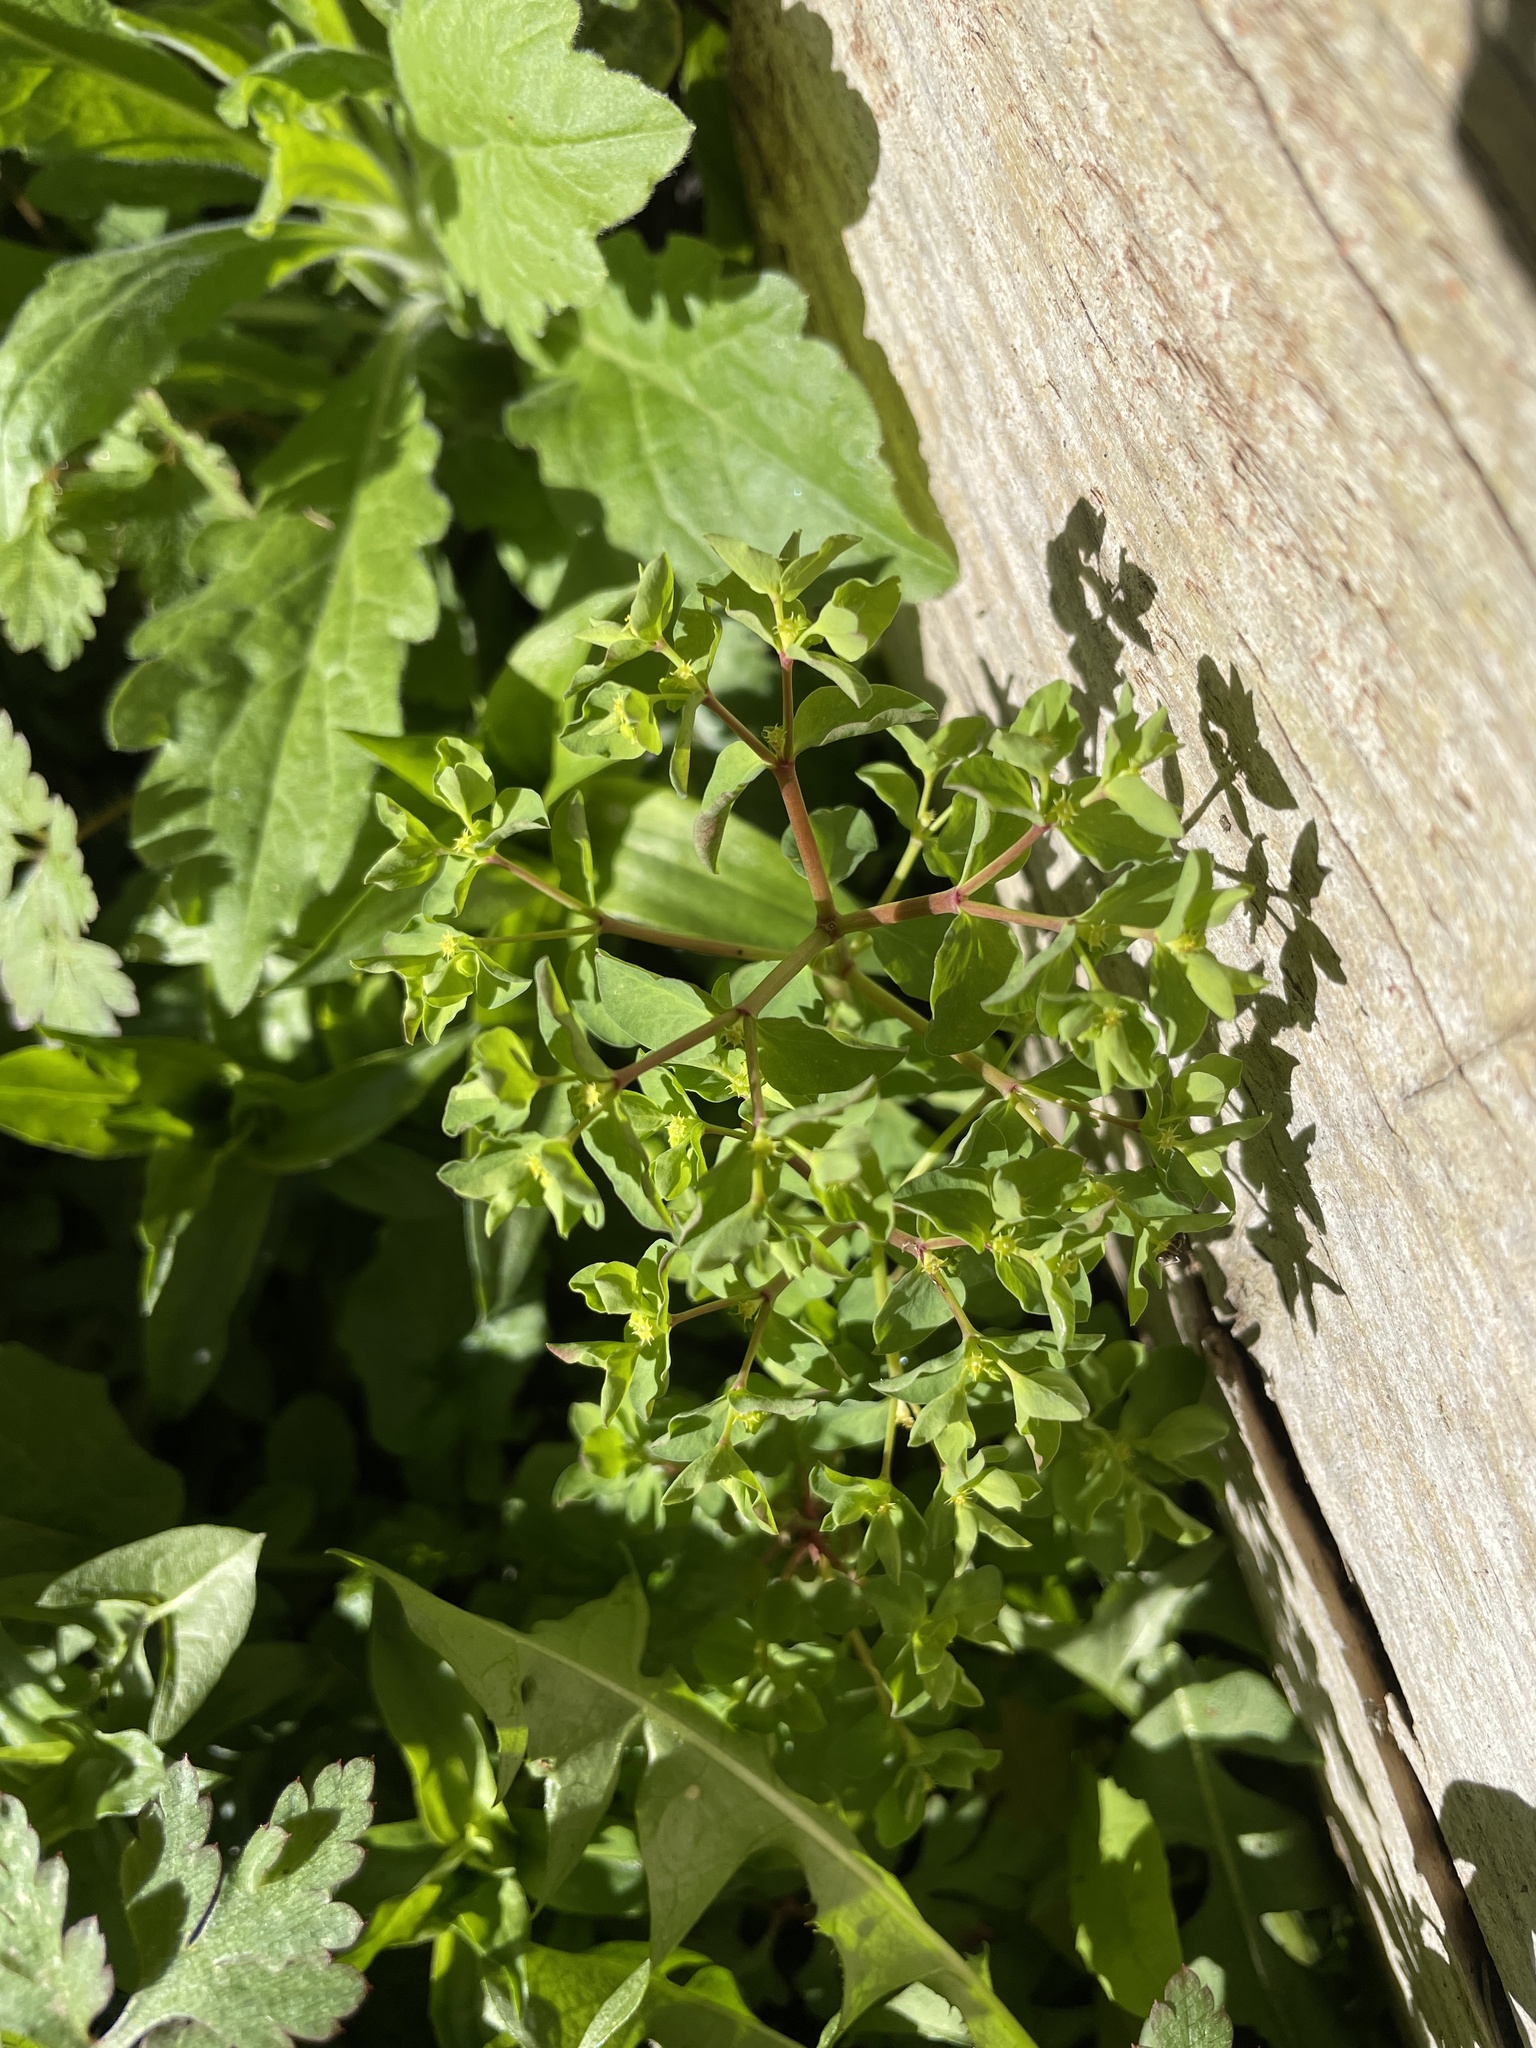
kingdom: Plantae
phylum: Tracheophyta
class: Magnoliopsida
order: Malpighiales
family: Euphorbiaceae
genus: Euphorbia
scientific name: Euphorbia peplus
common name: Petty spurge
